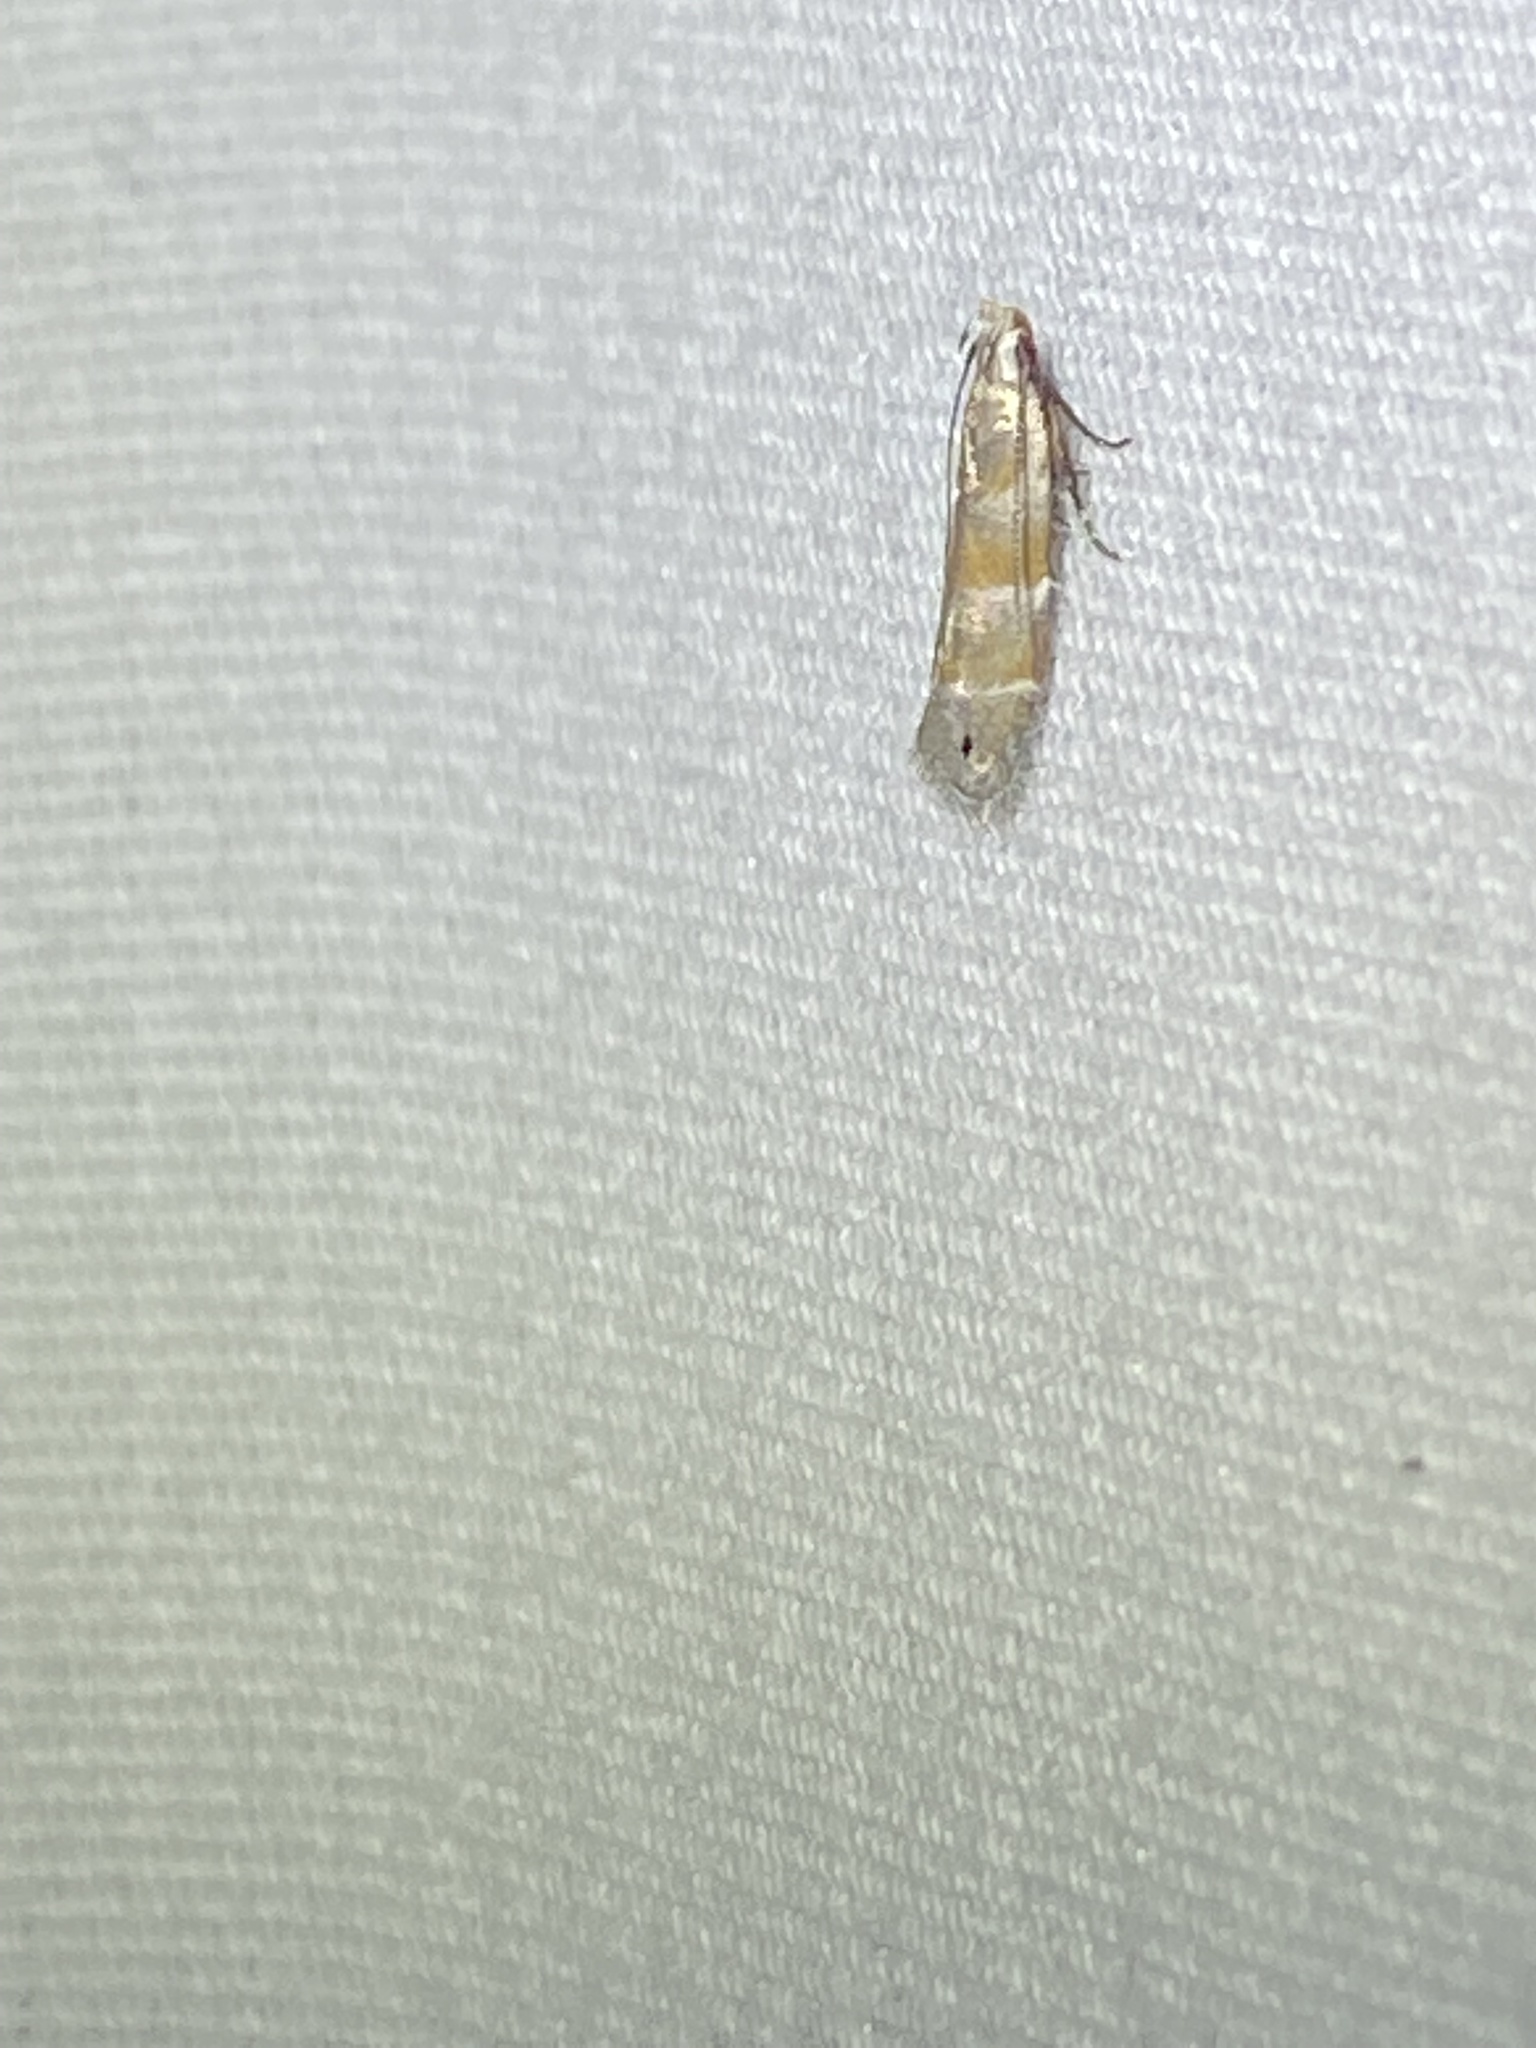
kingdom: Animalia
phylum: Arthropoda
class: Insecta
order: Lepidoptera
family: Gelechiidae
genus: Battaristis
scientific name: Battaristis vittella
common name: Orange stripe-backed moth
